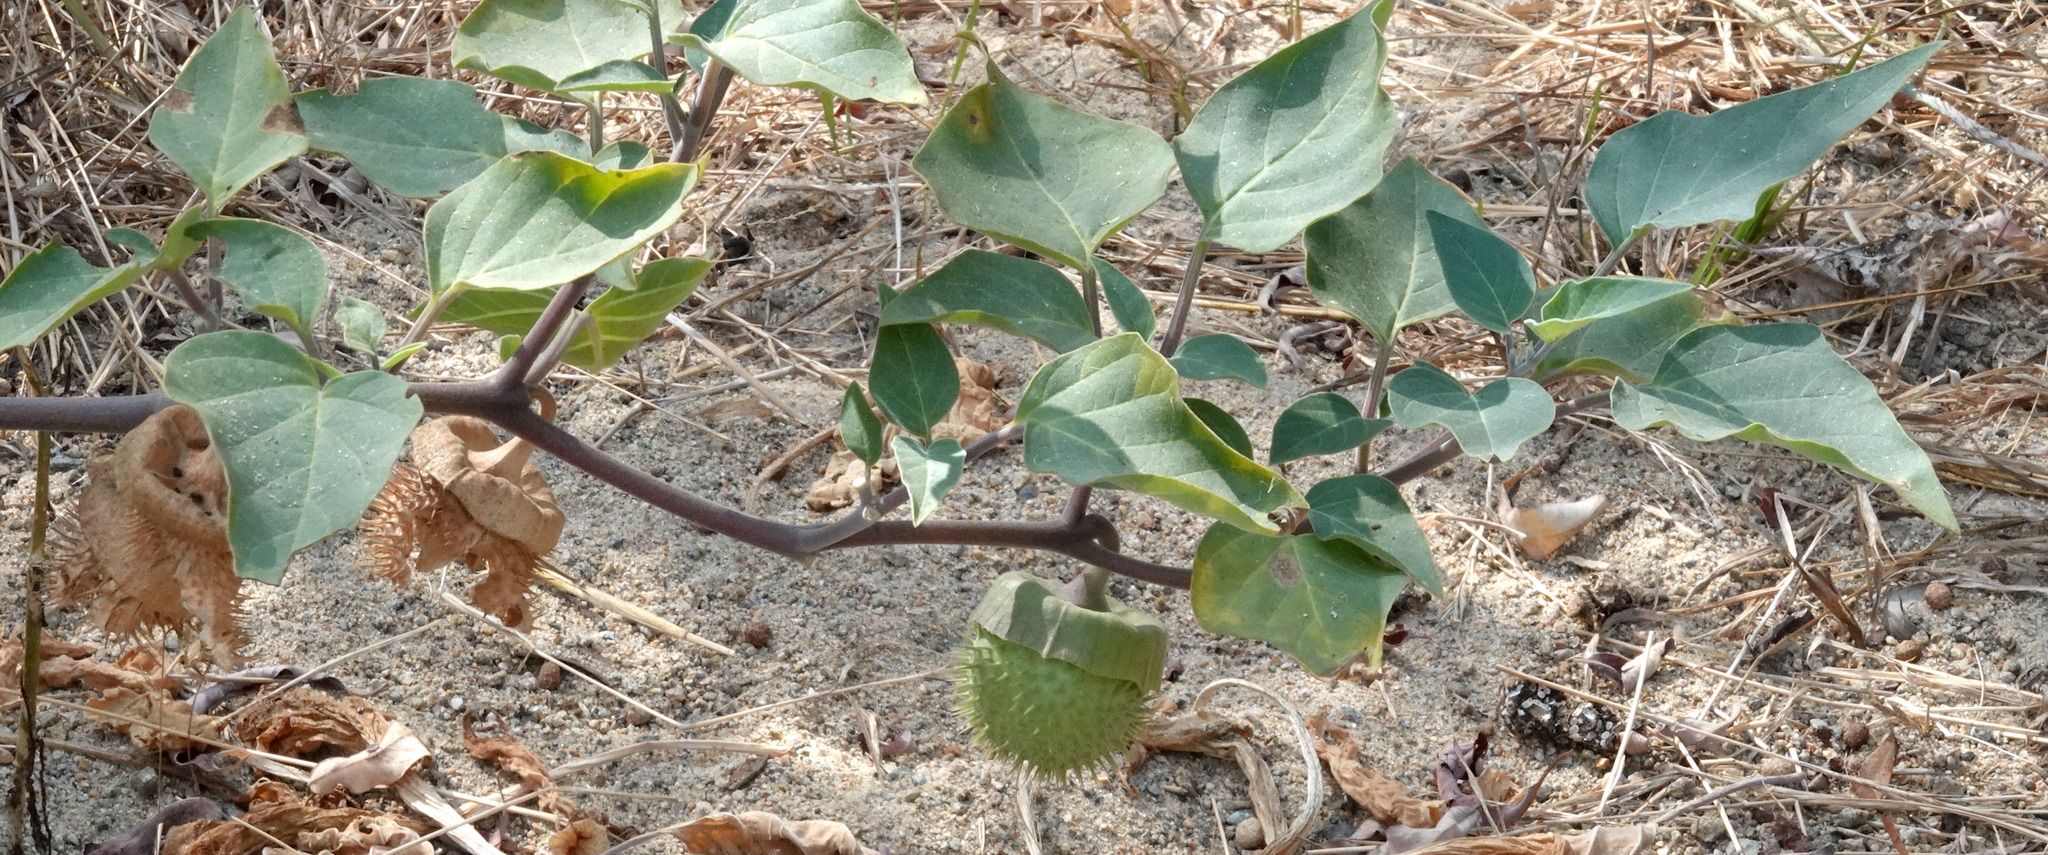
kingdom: Plantae
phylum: Tracheophyta
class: Magnoliopsida
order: Solanales
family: Solanaceae
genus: Datura
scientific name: Datura wrightii
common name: Sacred thorn-apple
